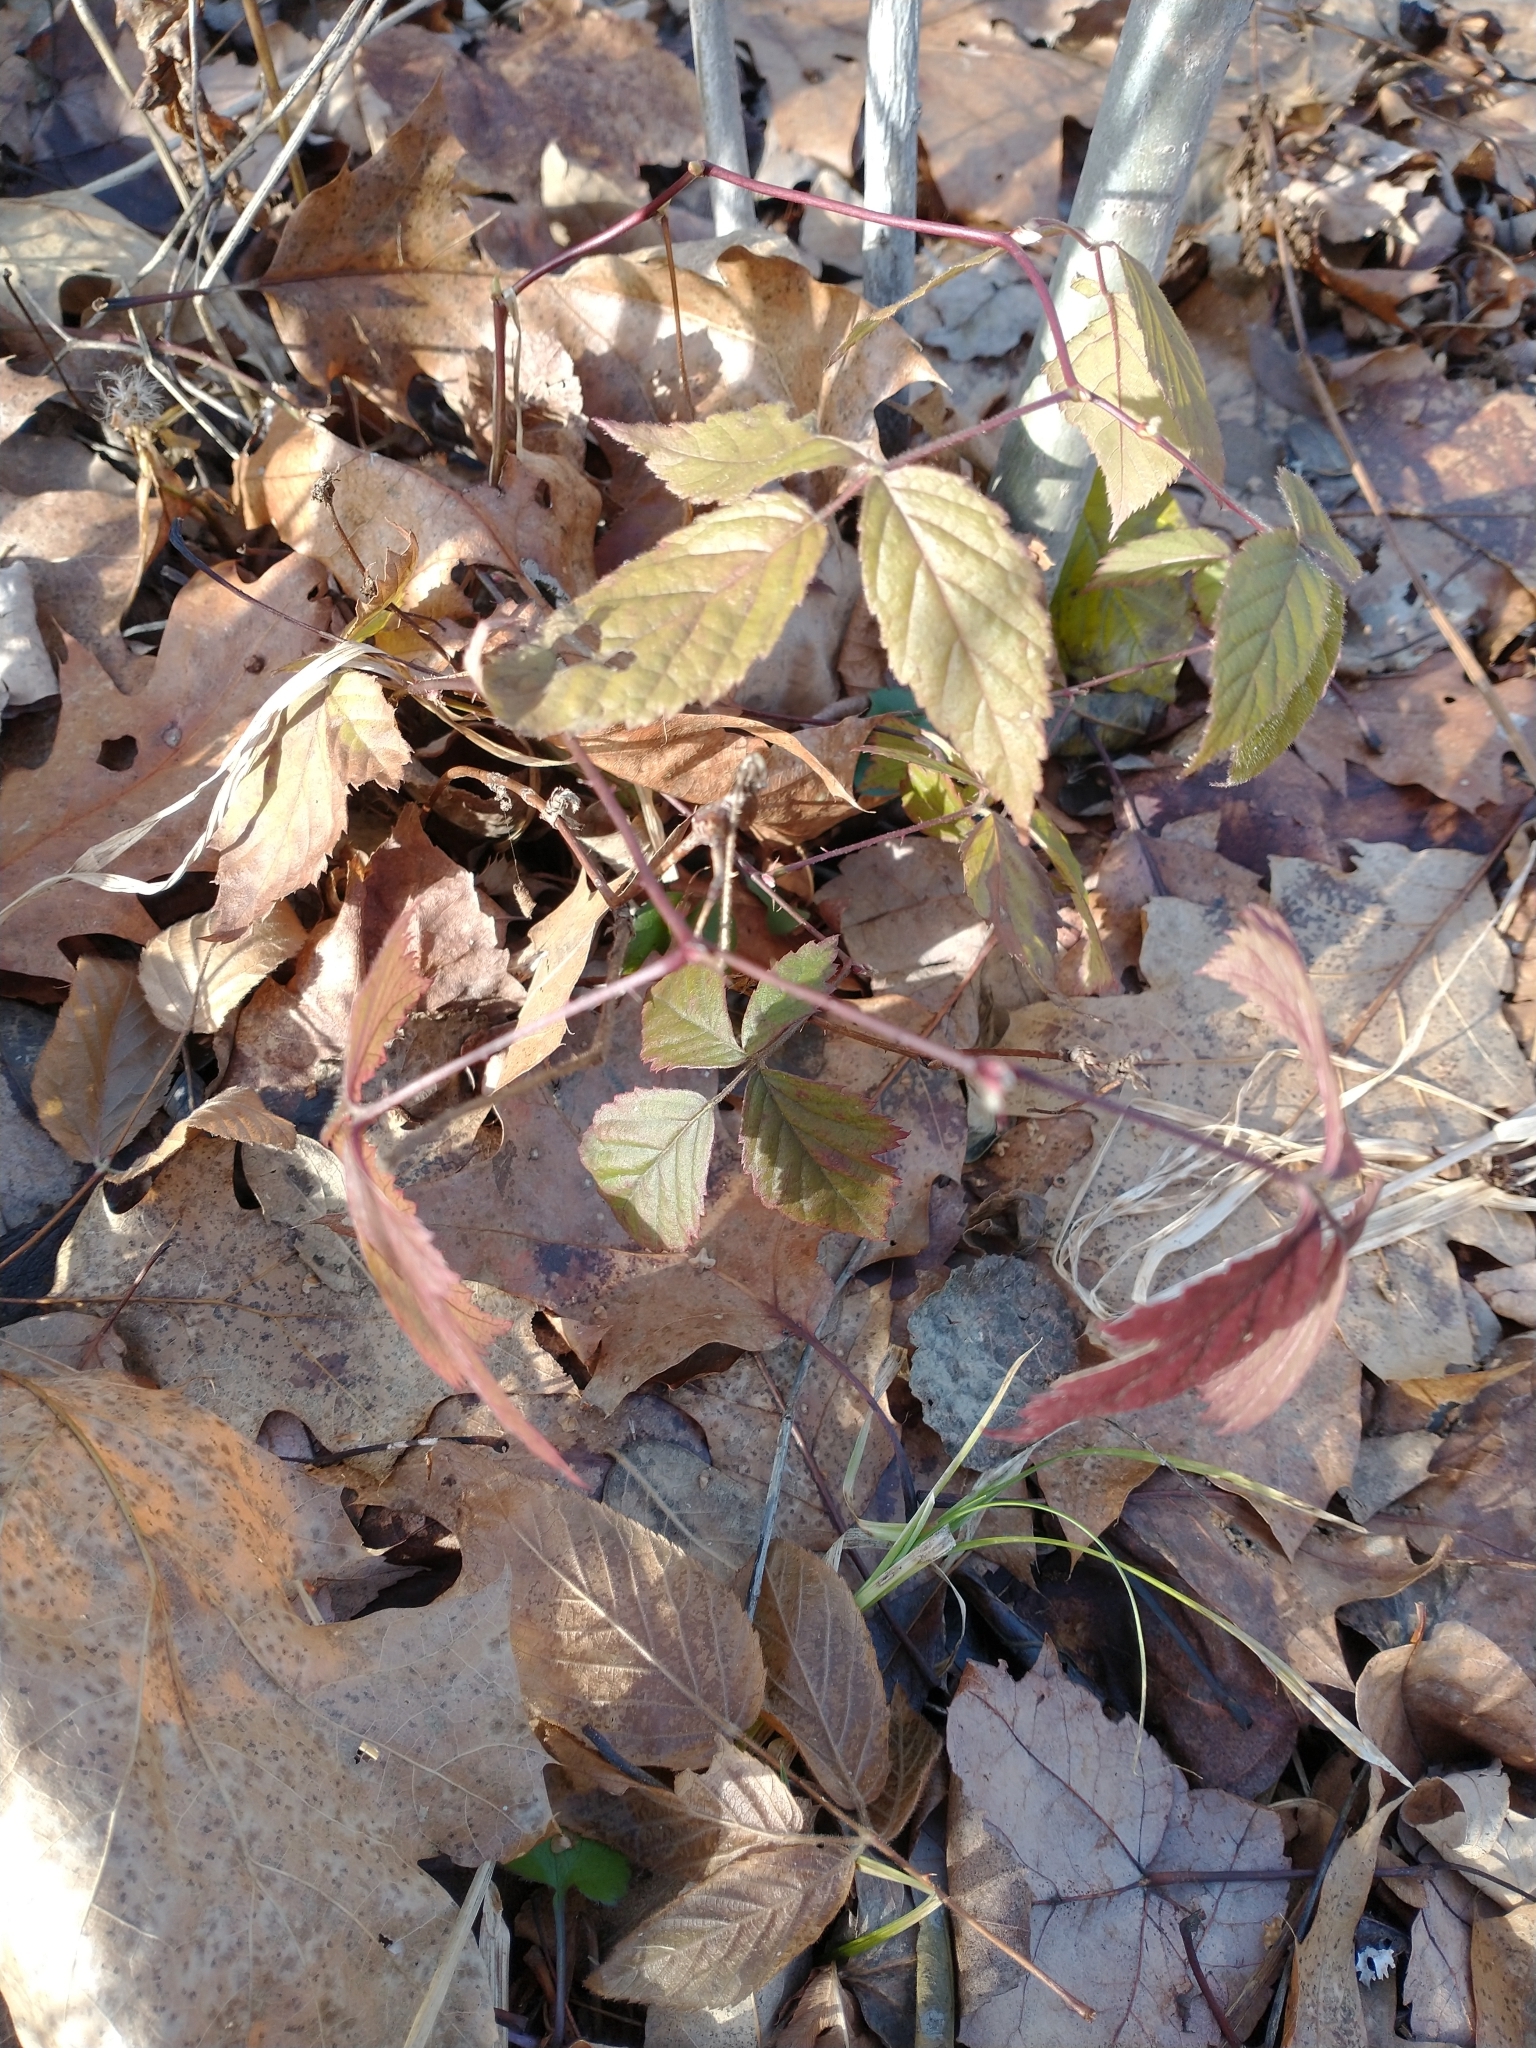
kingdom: Animalia
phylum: Arthropoda
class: Insecta
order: Hymenoptera
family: Cynipidae
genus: Diastrophus
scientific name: Diastrophus
